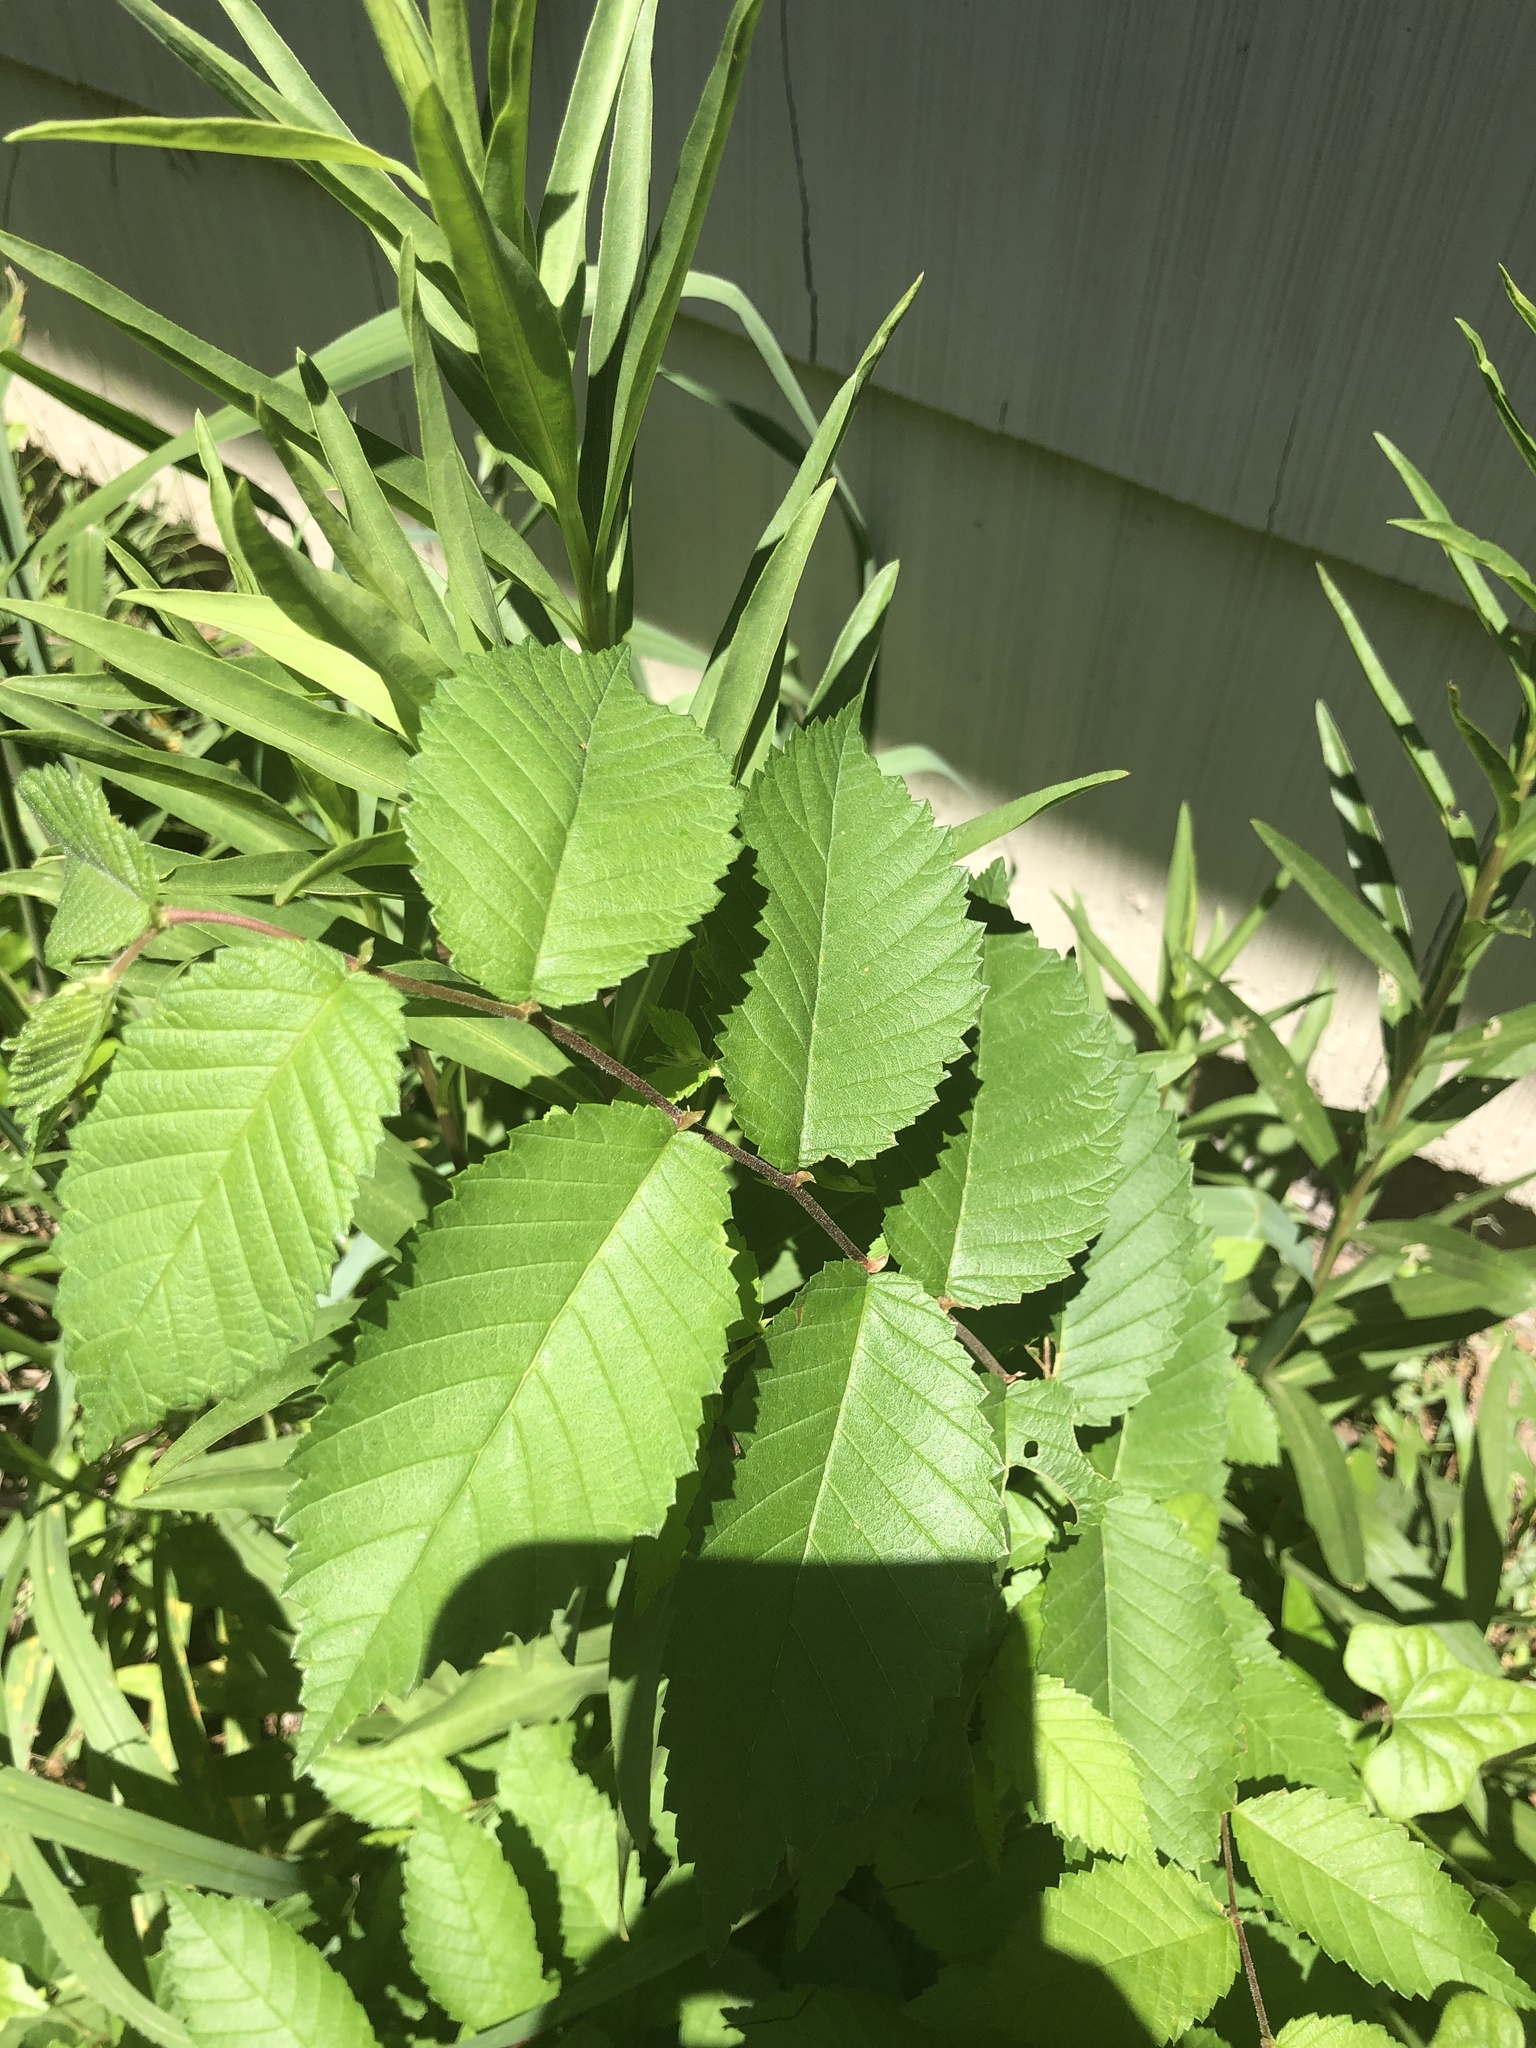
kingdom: Plantae
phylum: Tracheophyta
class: Magnoliopsida
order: Rosales
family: Ulmaceae
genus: Ulmus
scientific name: Ulmus americana
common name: American elm
